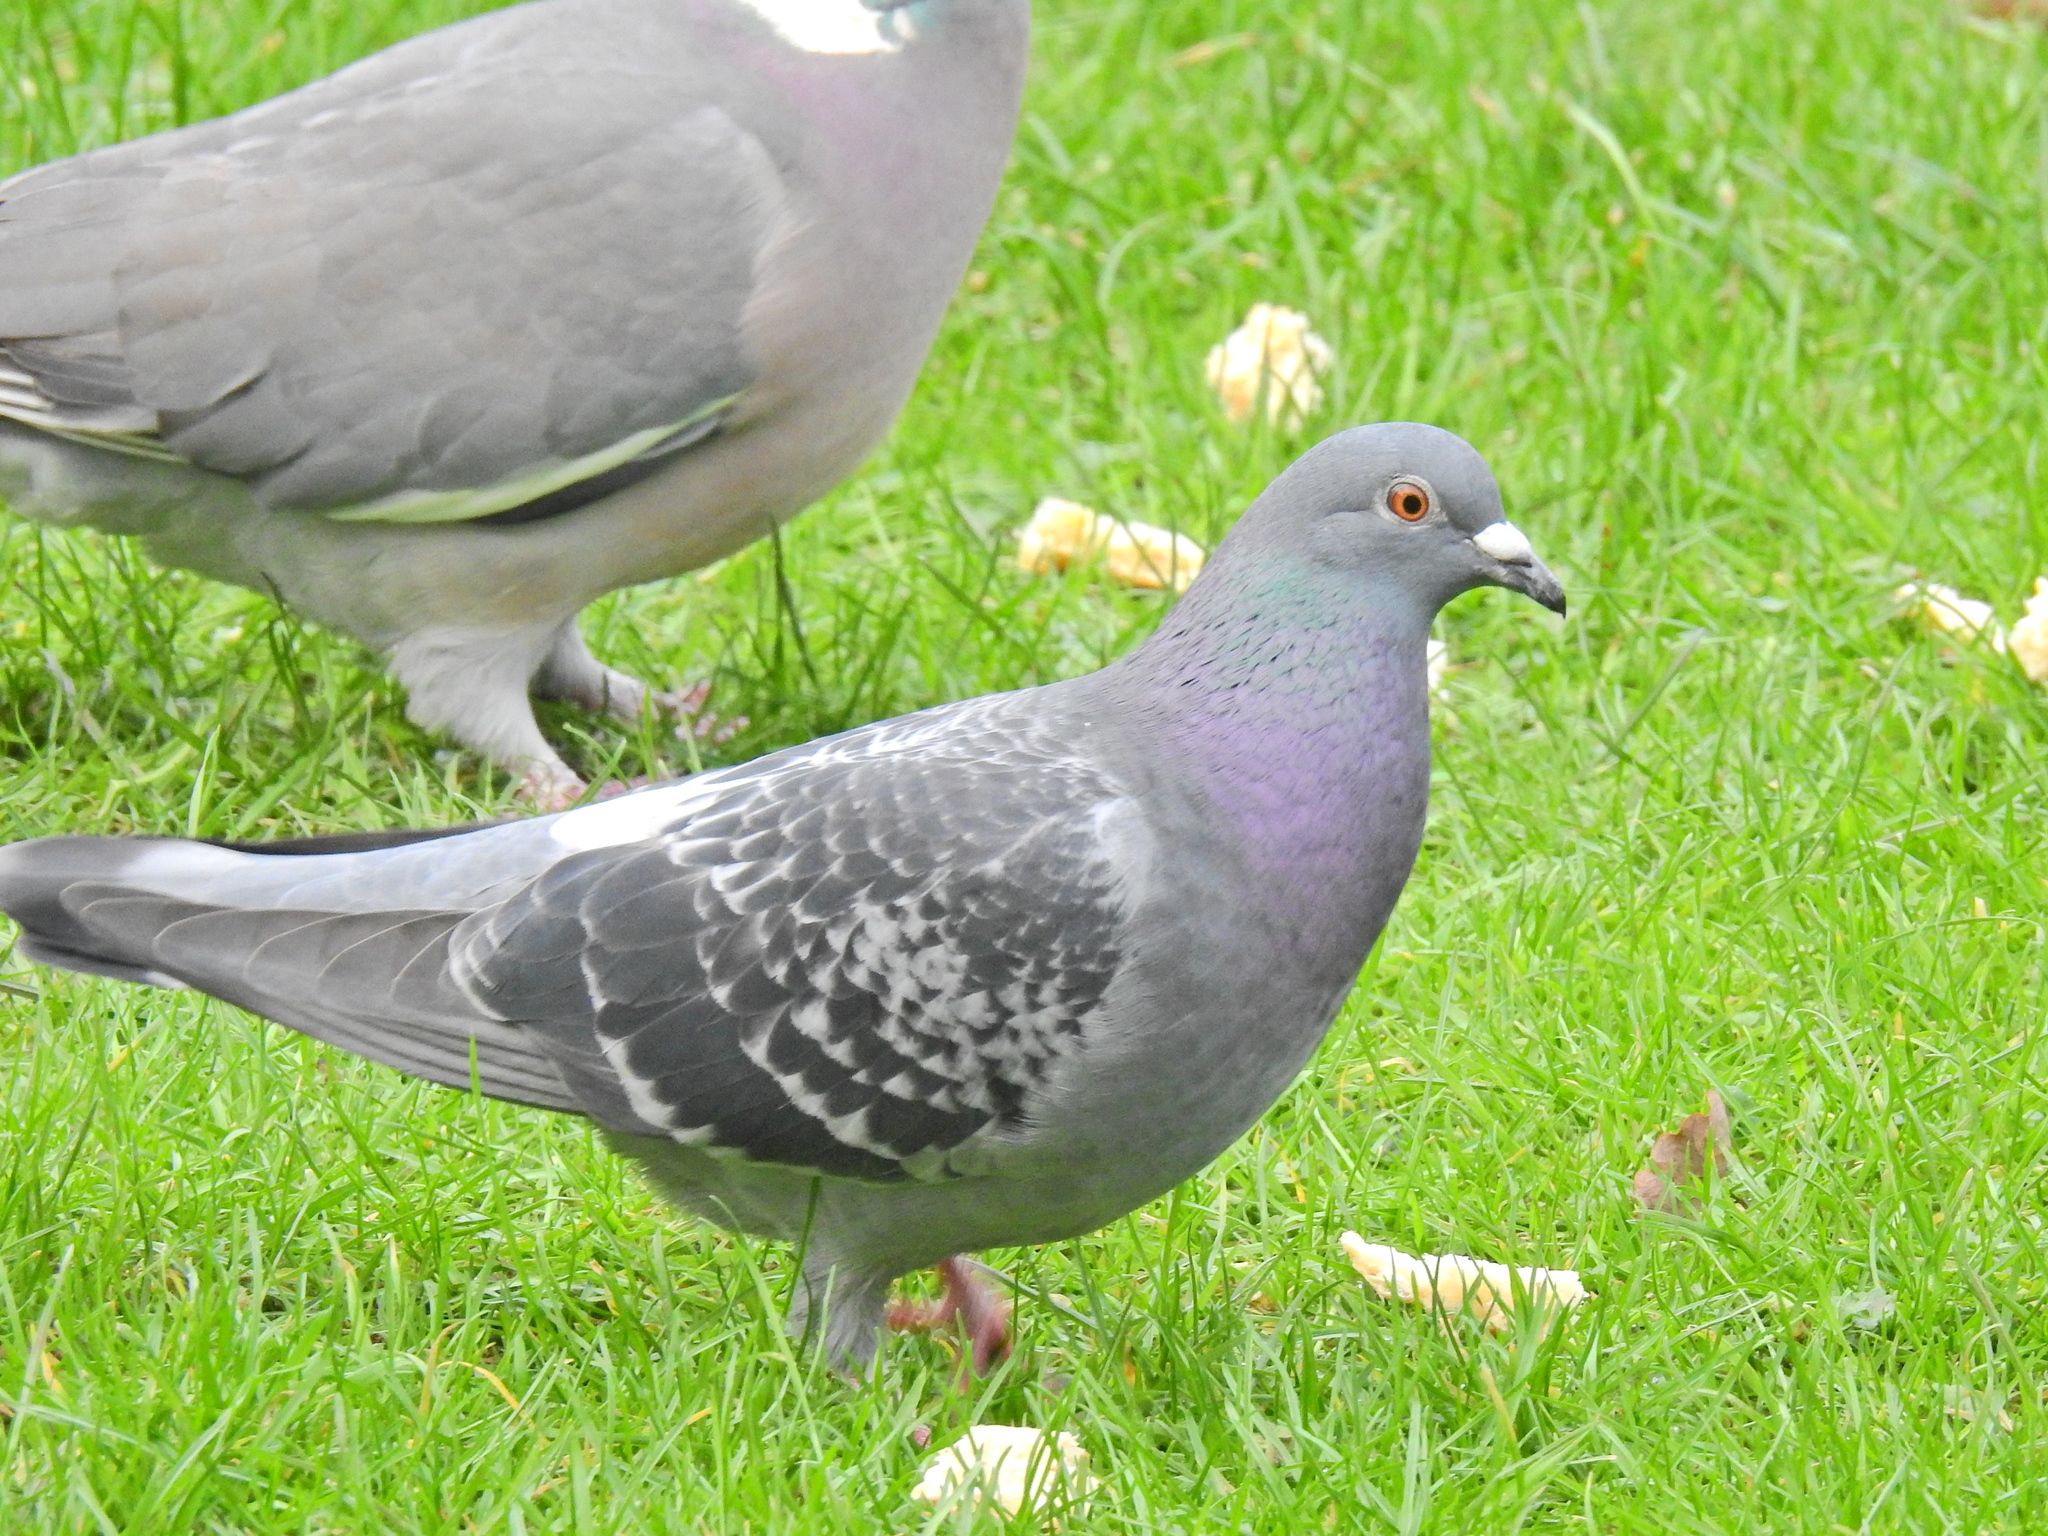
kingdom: Animalia
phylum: Chordata
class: Aves
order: Columbiformes
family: Columbidae
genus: Columba
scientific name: Columba livia
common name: Rock pigeon
